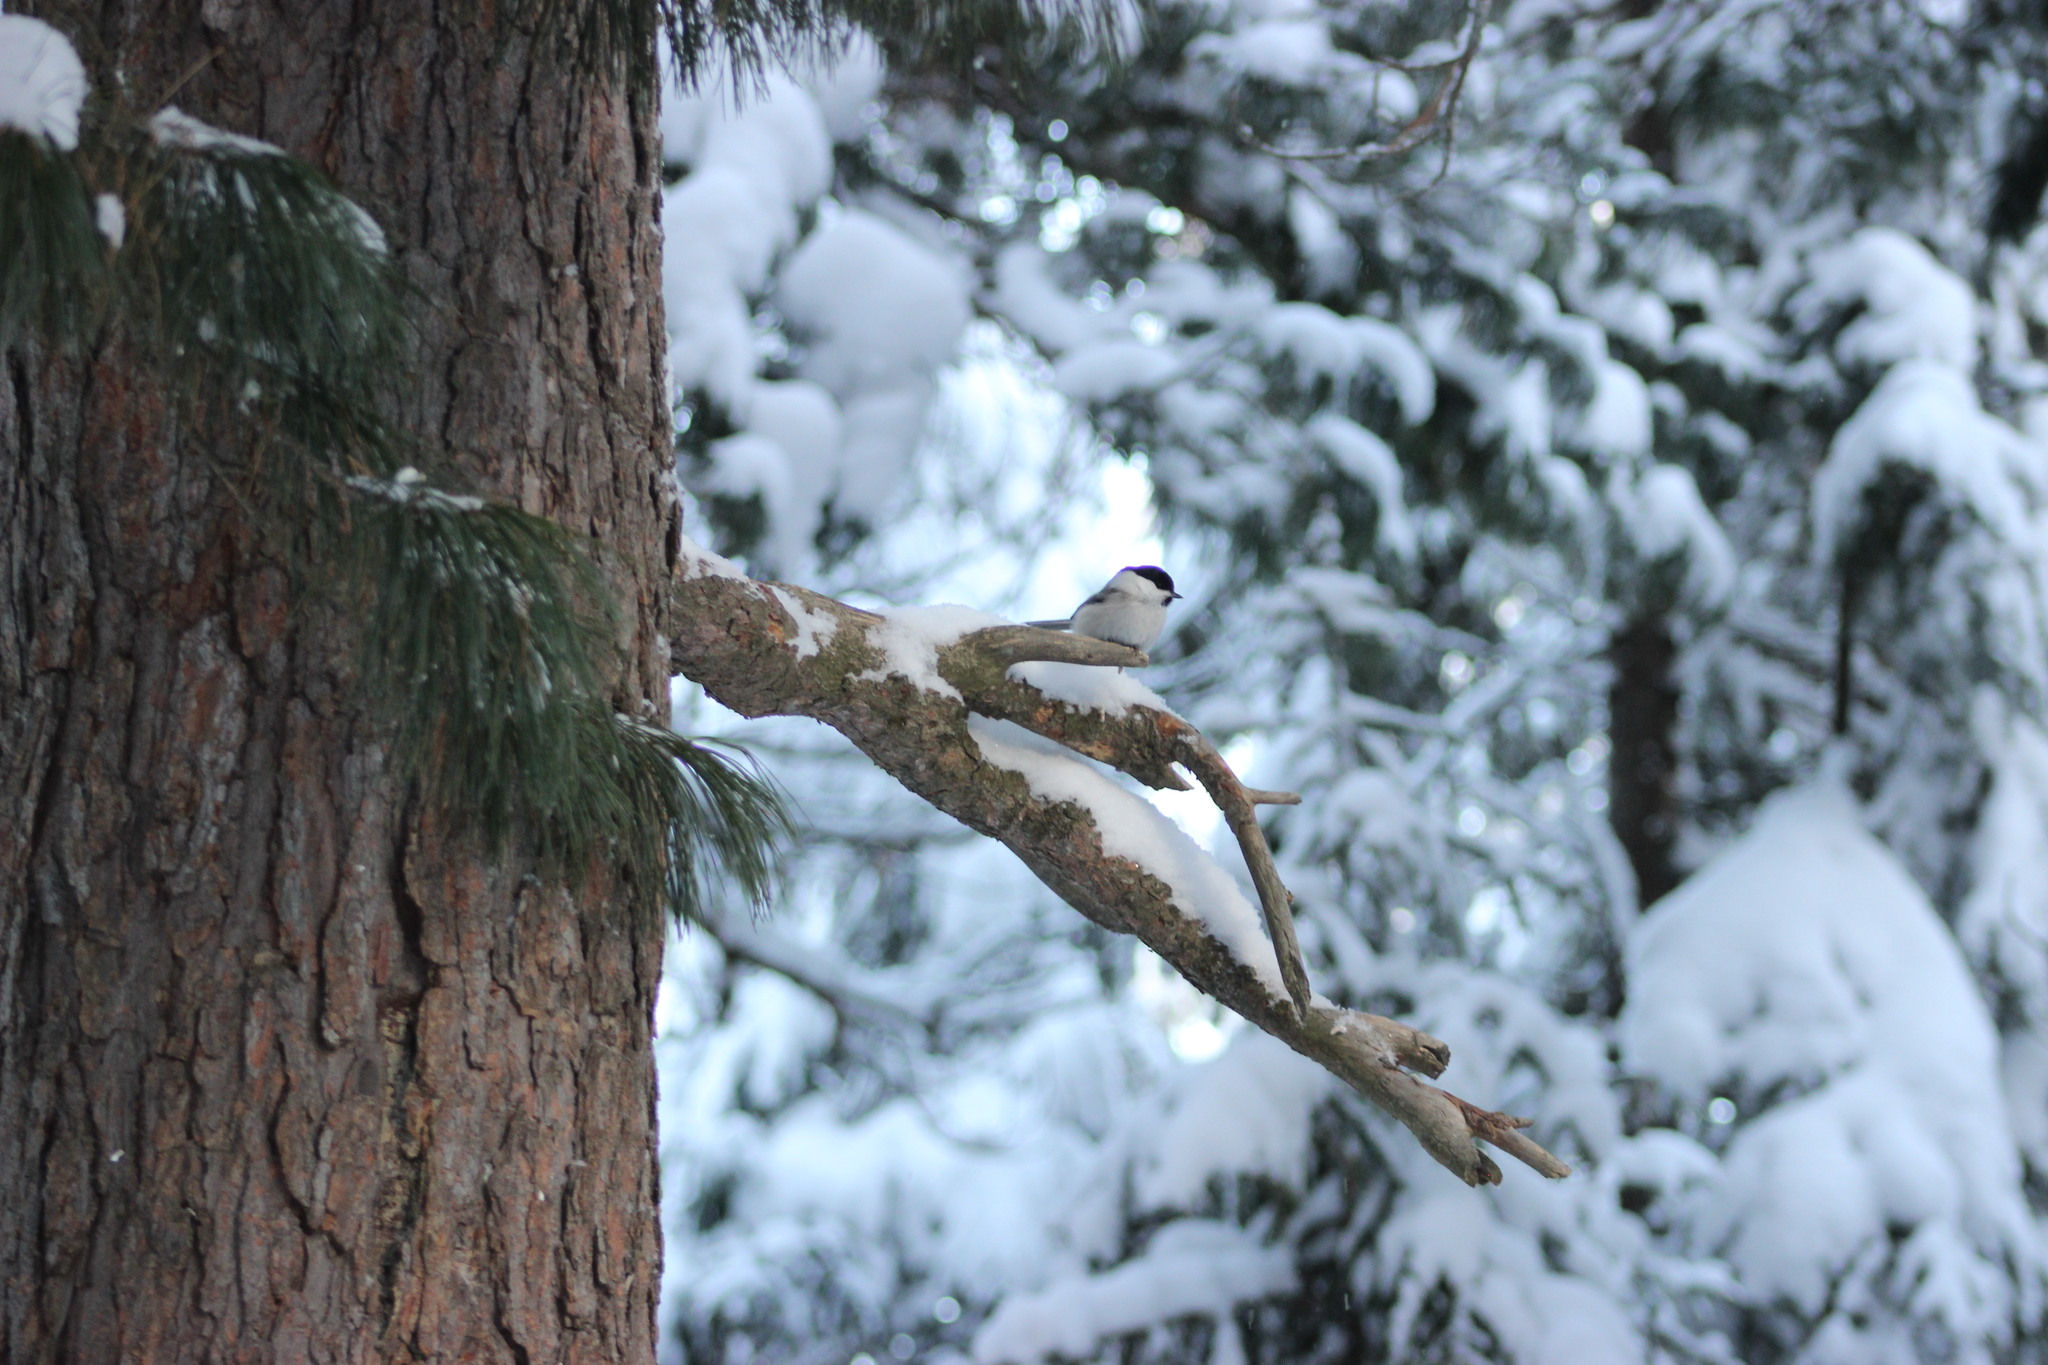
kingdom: Animalia
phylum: Chordata
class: Aves
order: Passeriformes
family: Paridae
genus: Poecile
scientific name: Poecile montanus
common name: Willow tit
